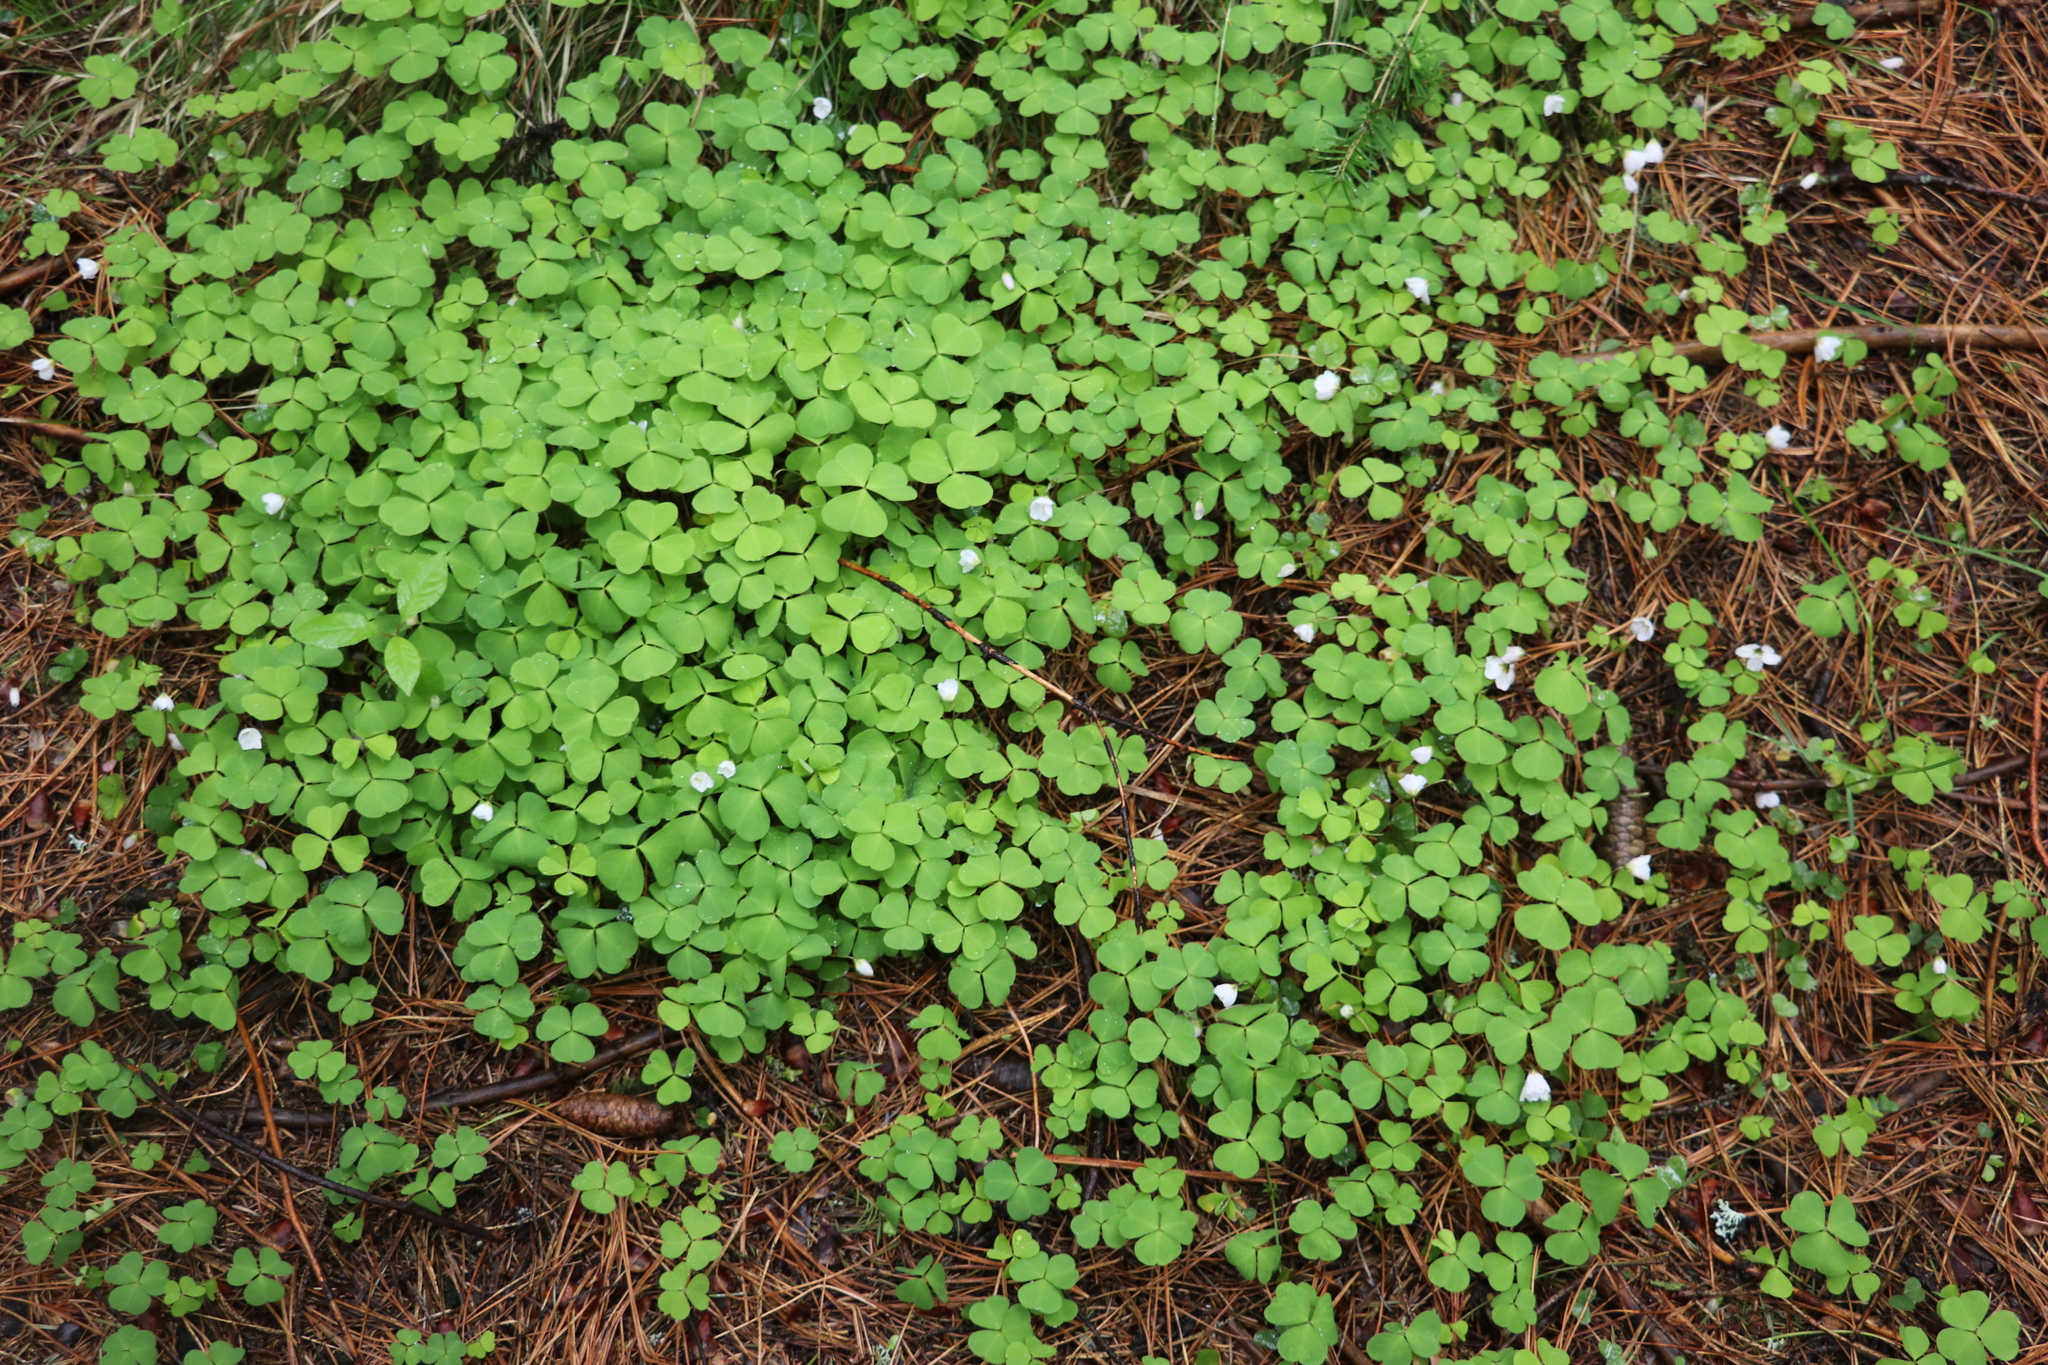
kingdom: Plantae
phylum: Tracheophyta
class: Magnoliopsida
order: Oxalidales
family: Oxalidaceae
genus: Oxalis
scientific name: Oxalis acetosella
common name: Wood-sorrel
